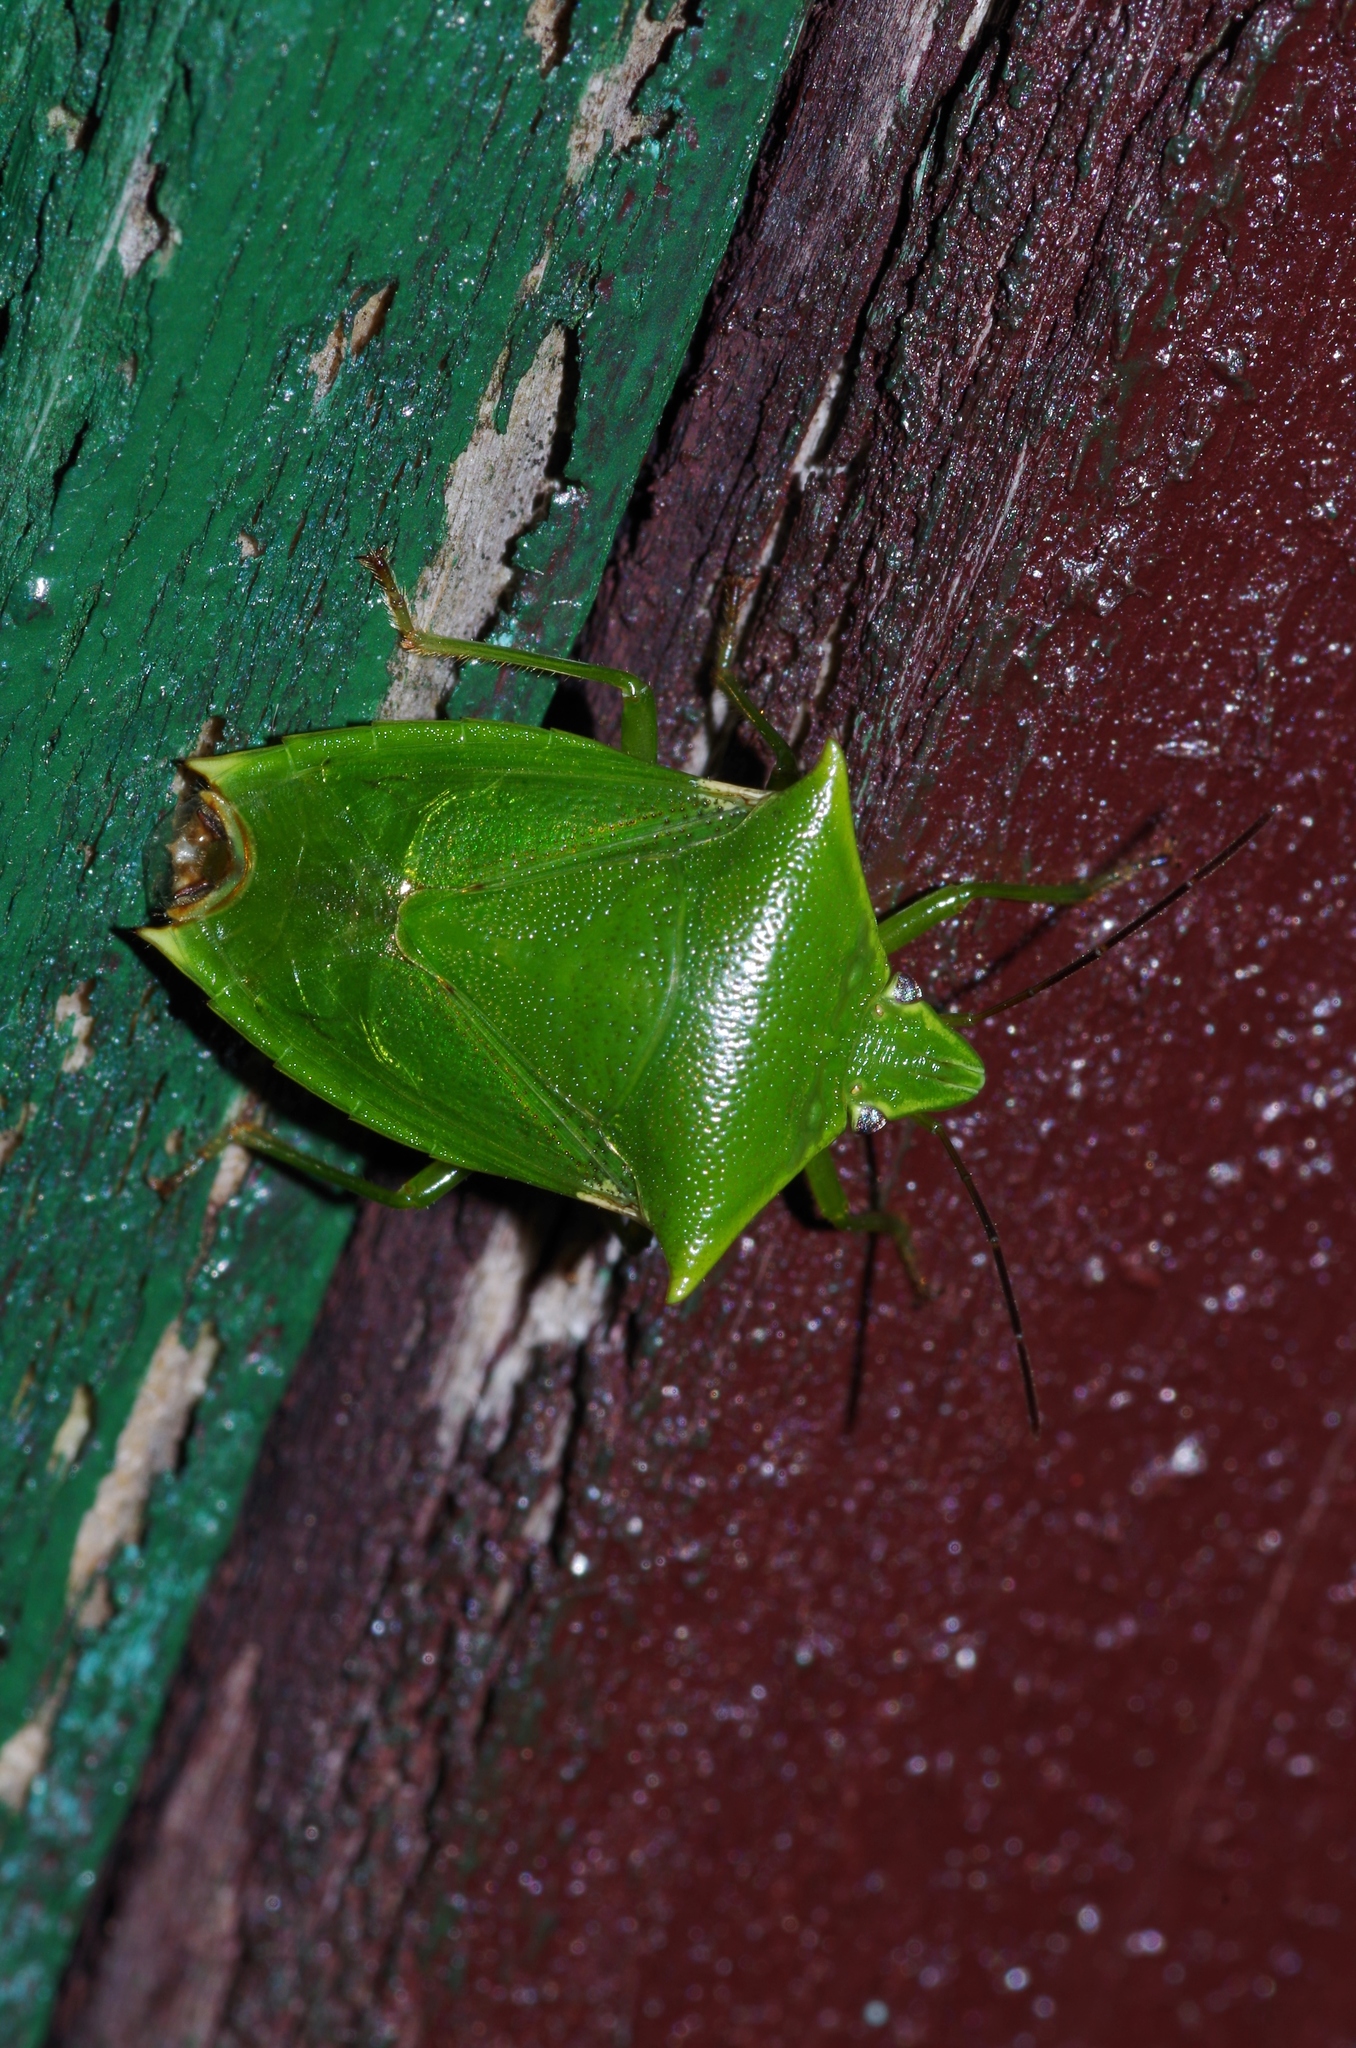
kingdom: Animalia
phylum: Arthropoda
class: Insecta
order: Hemiptera
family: Pentatomidae
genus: Vitellus
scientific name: Vitellus
